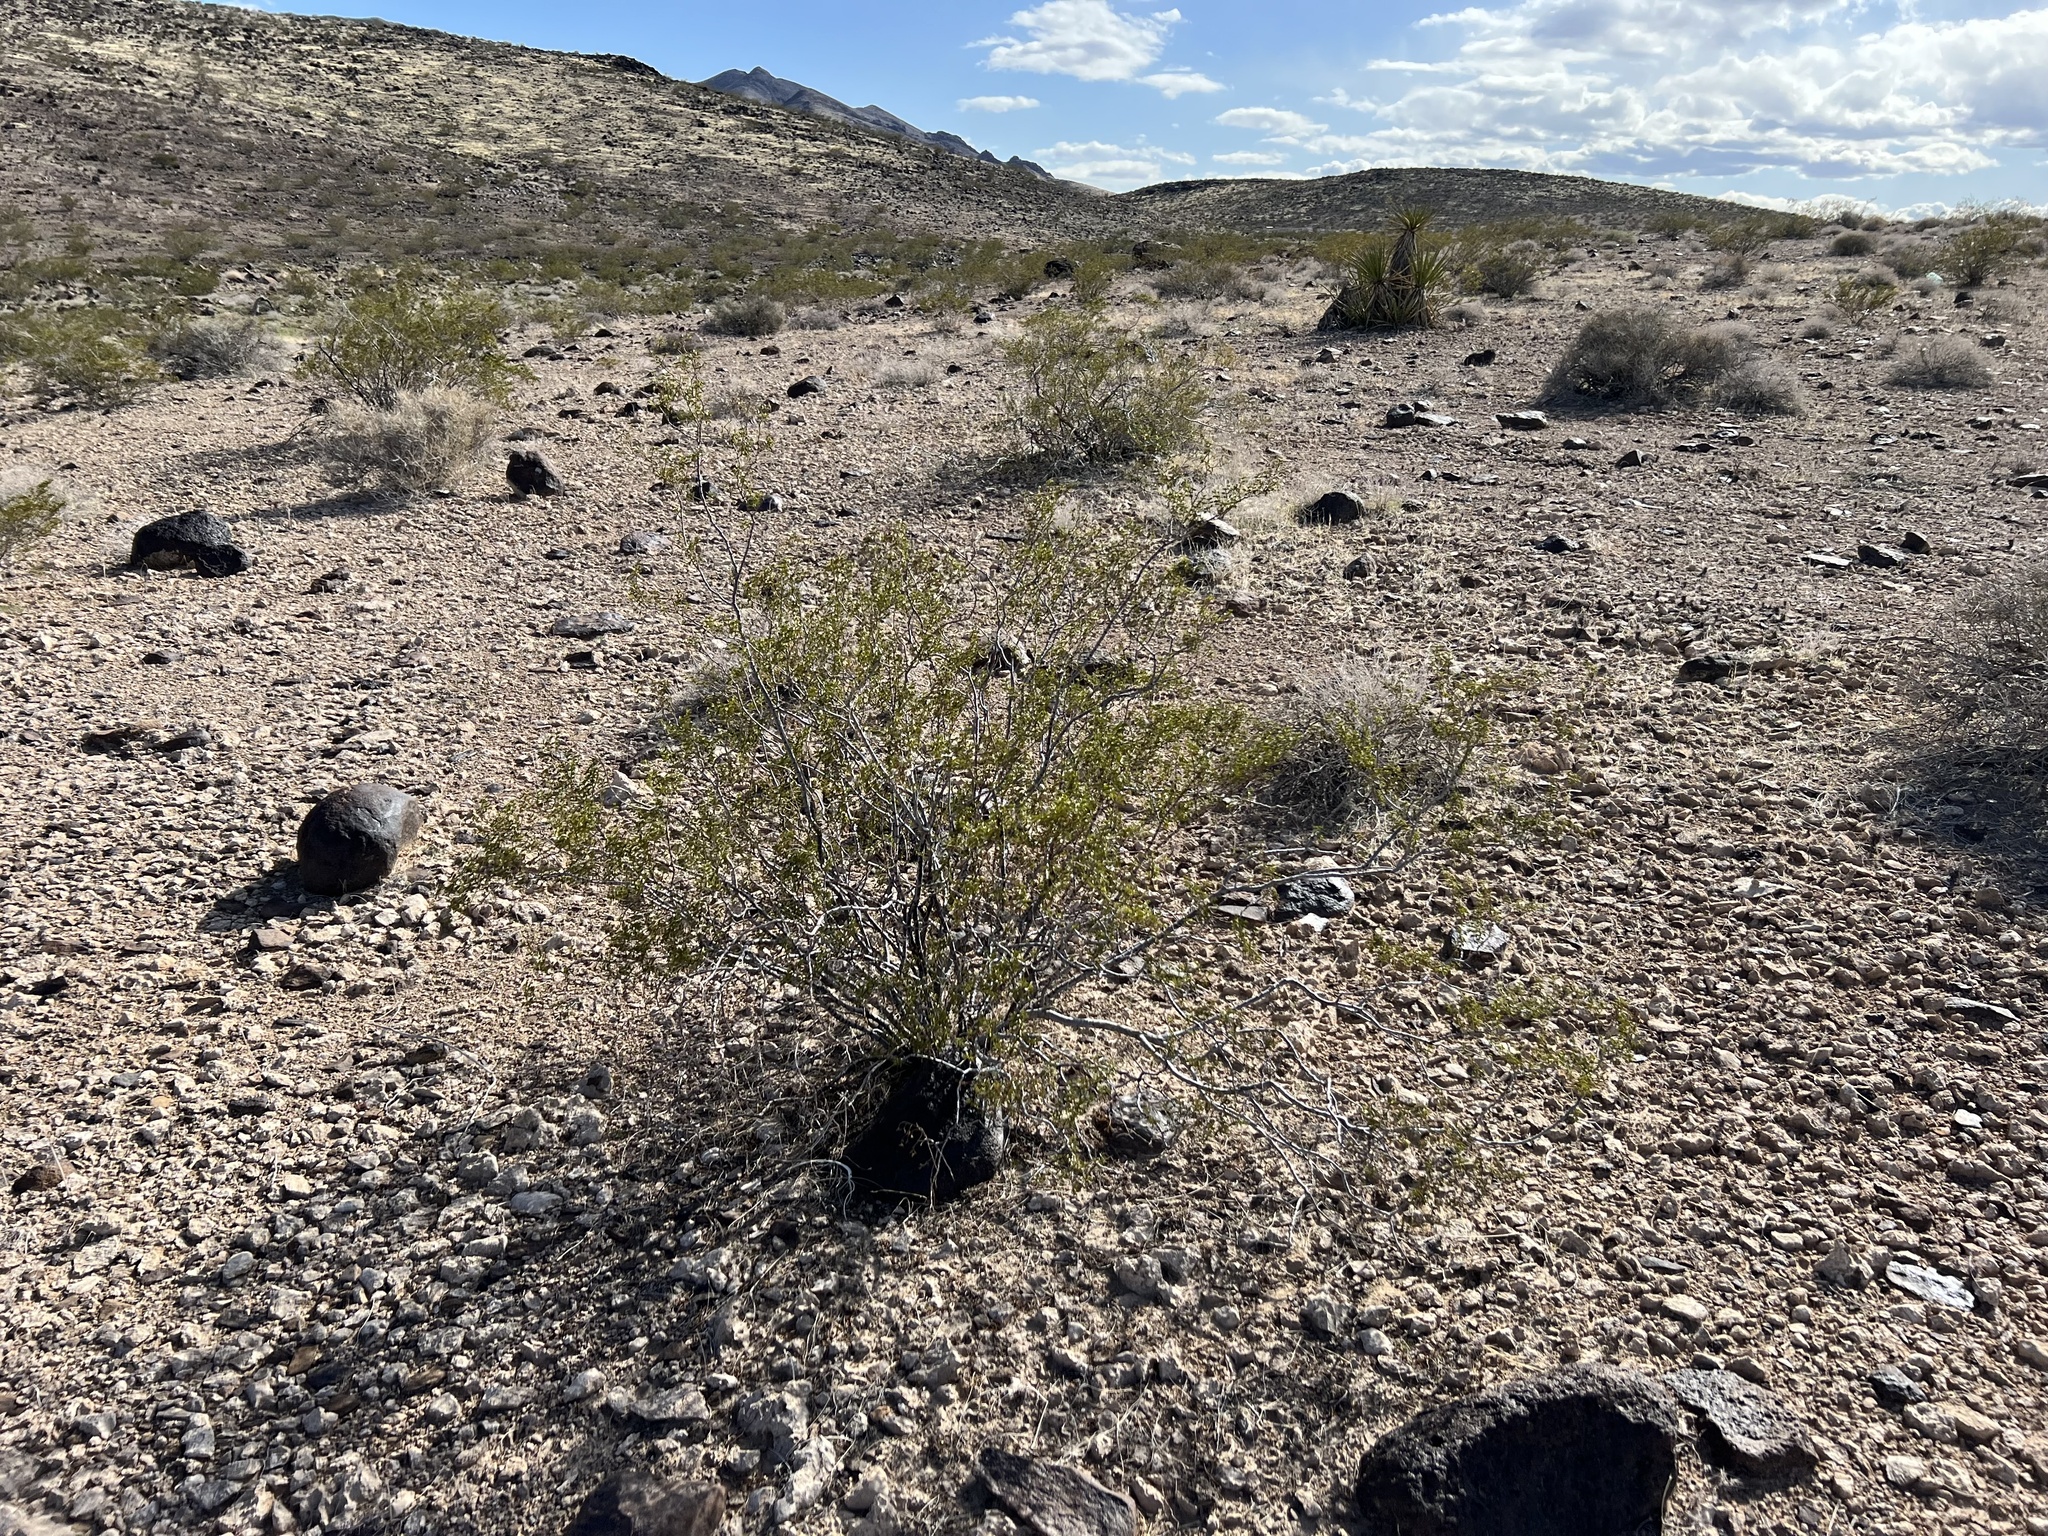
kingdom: Plantae
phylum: Tracheophyta
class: Magnoliopsida
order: Zygophyllales
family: Zygophyllaceae
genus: Larrea
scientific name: Larrea tridentata
